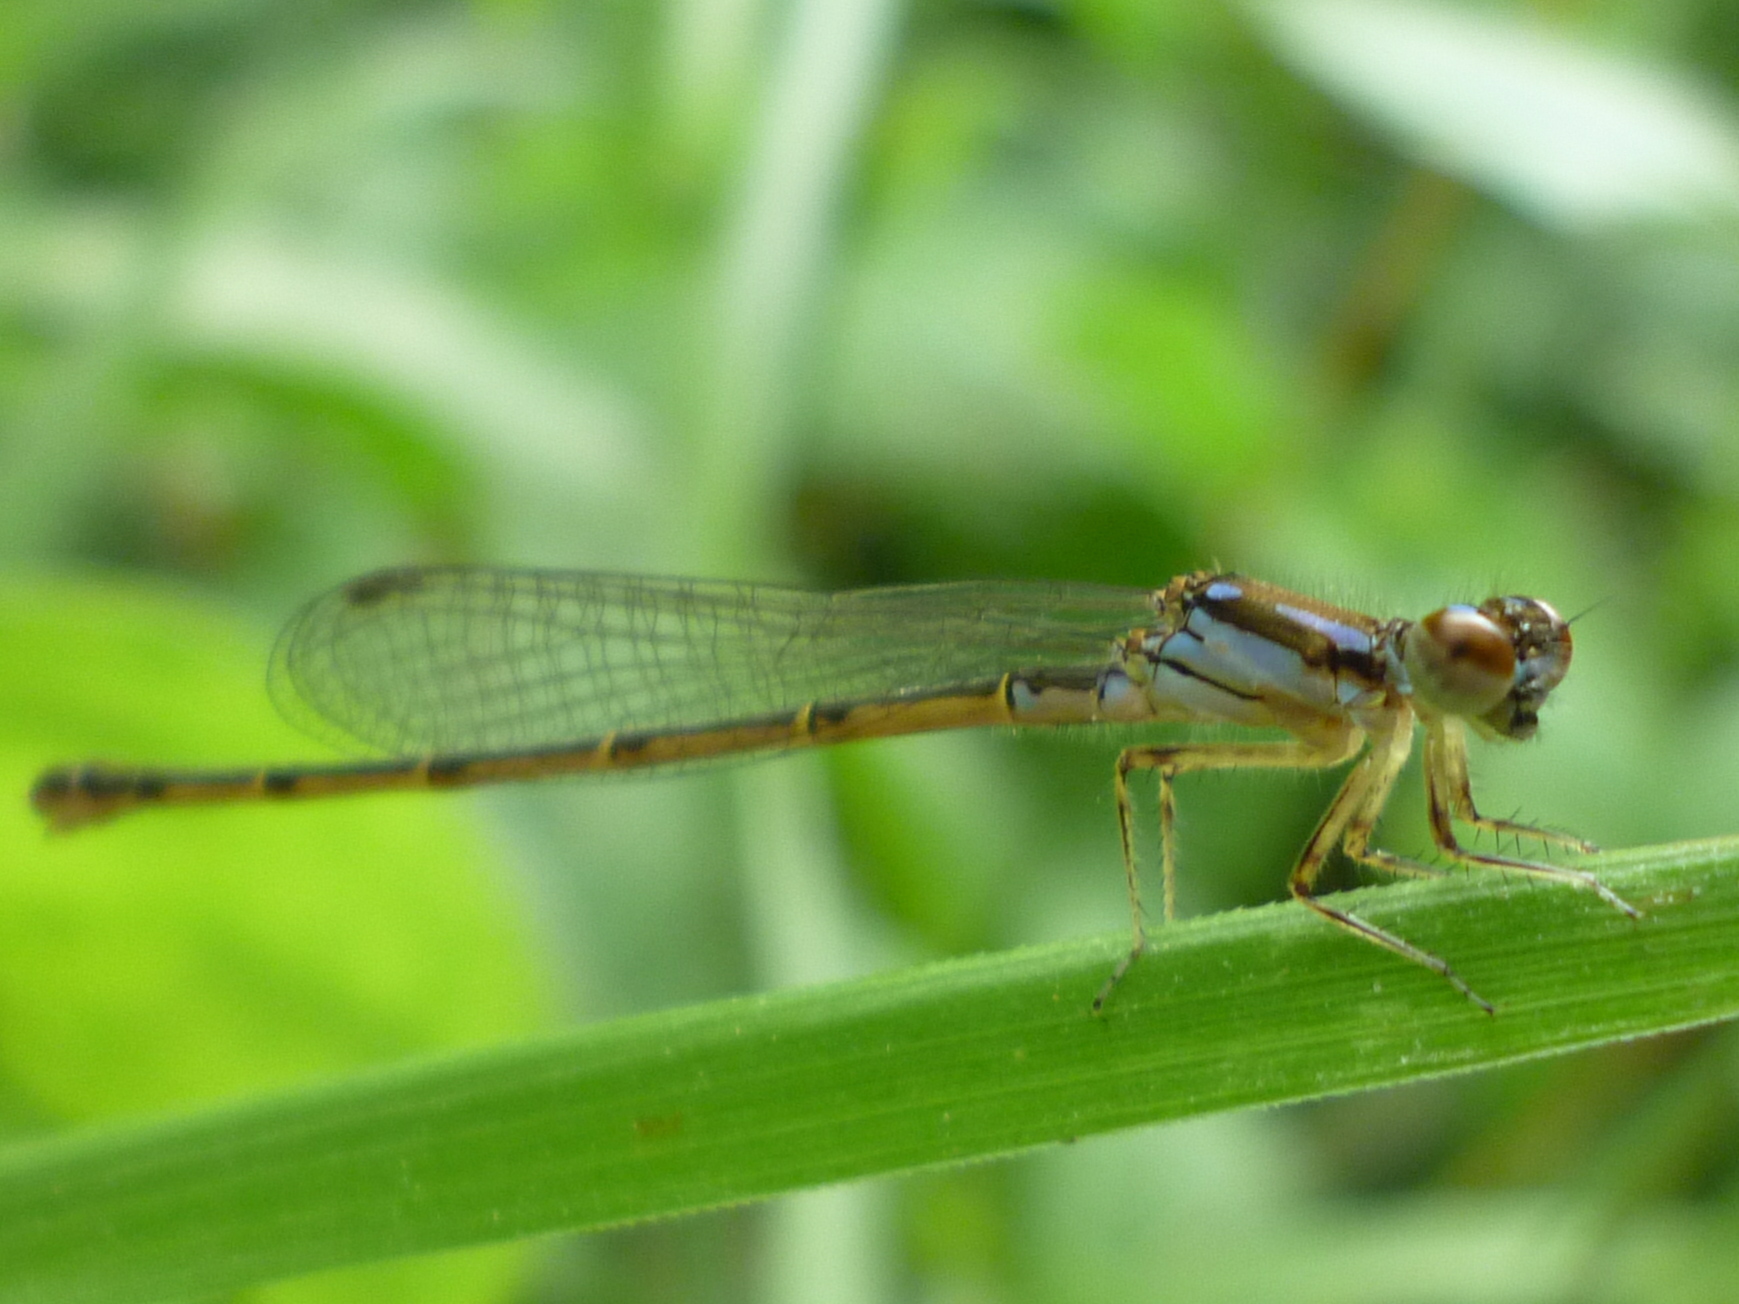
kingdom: Animalia
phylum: Arthropoda
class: Insecta
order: Odonata
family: Coenagrionidae
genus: Ischnura
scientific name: Ischnura posita
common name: Fragile forktail
